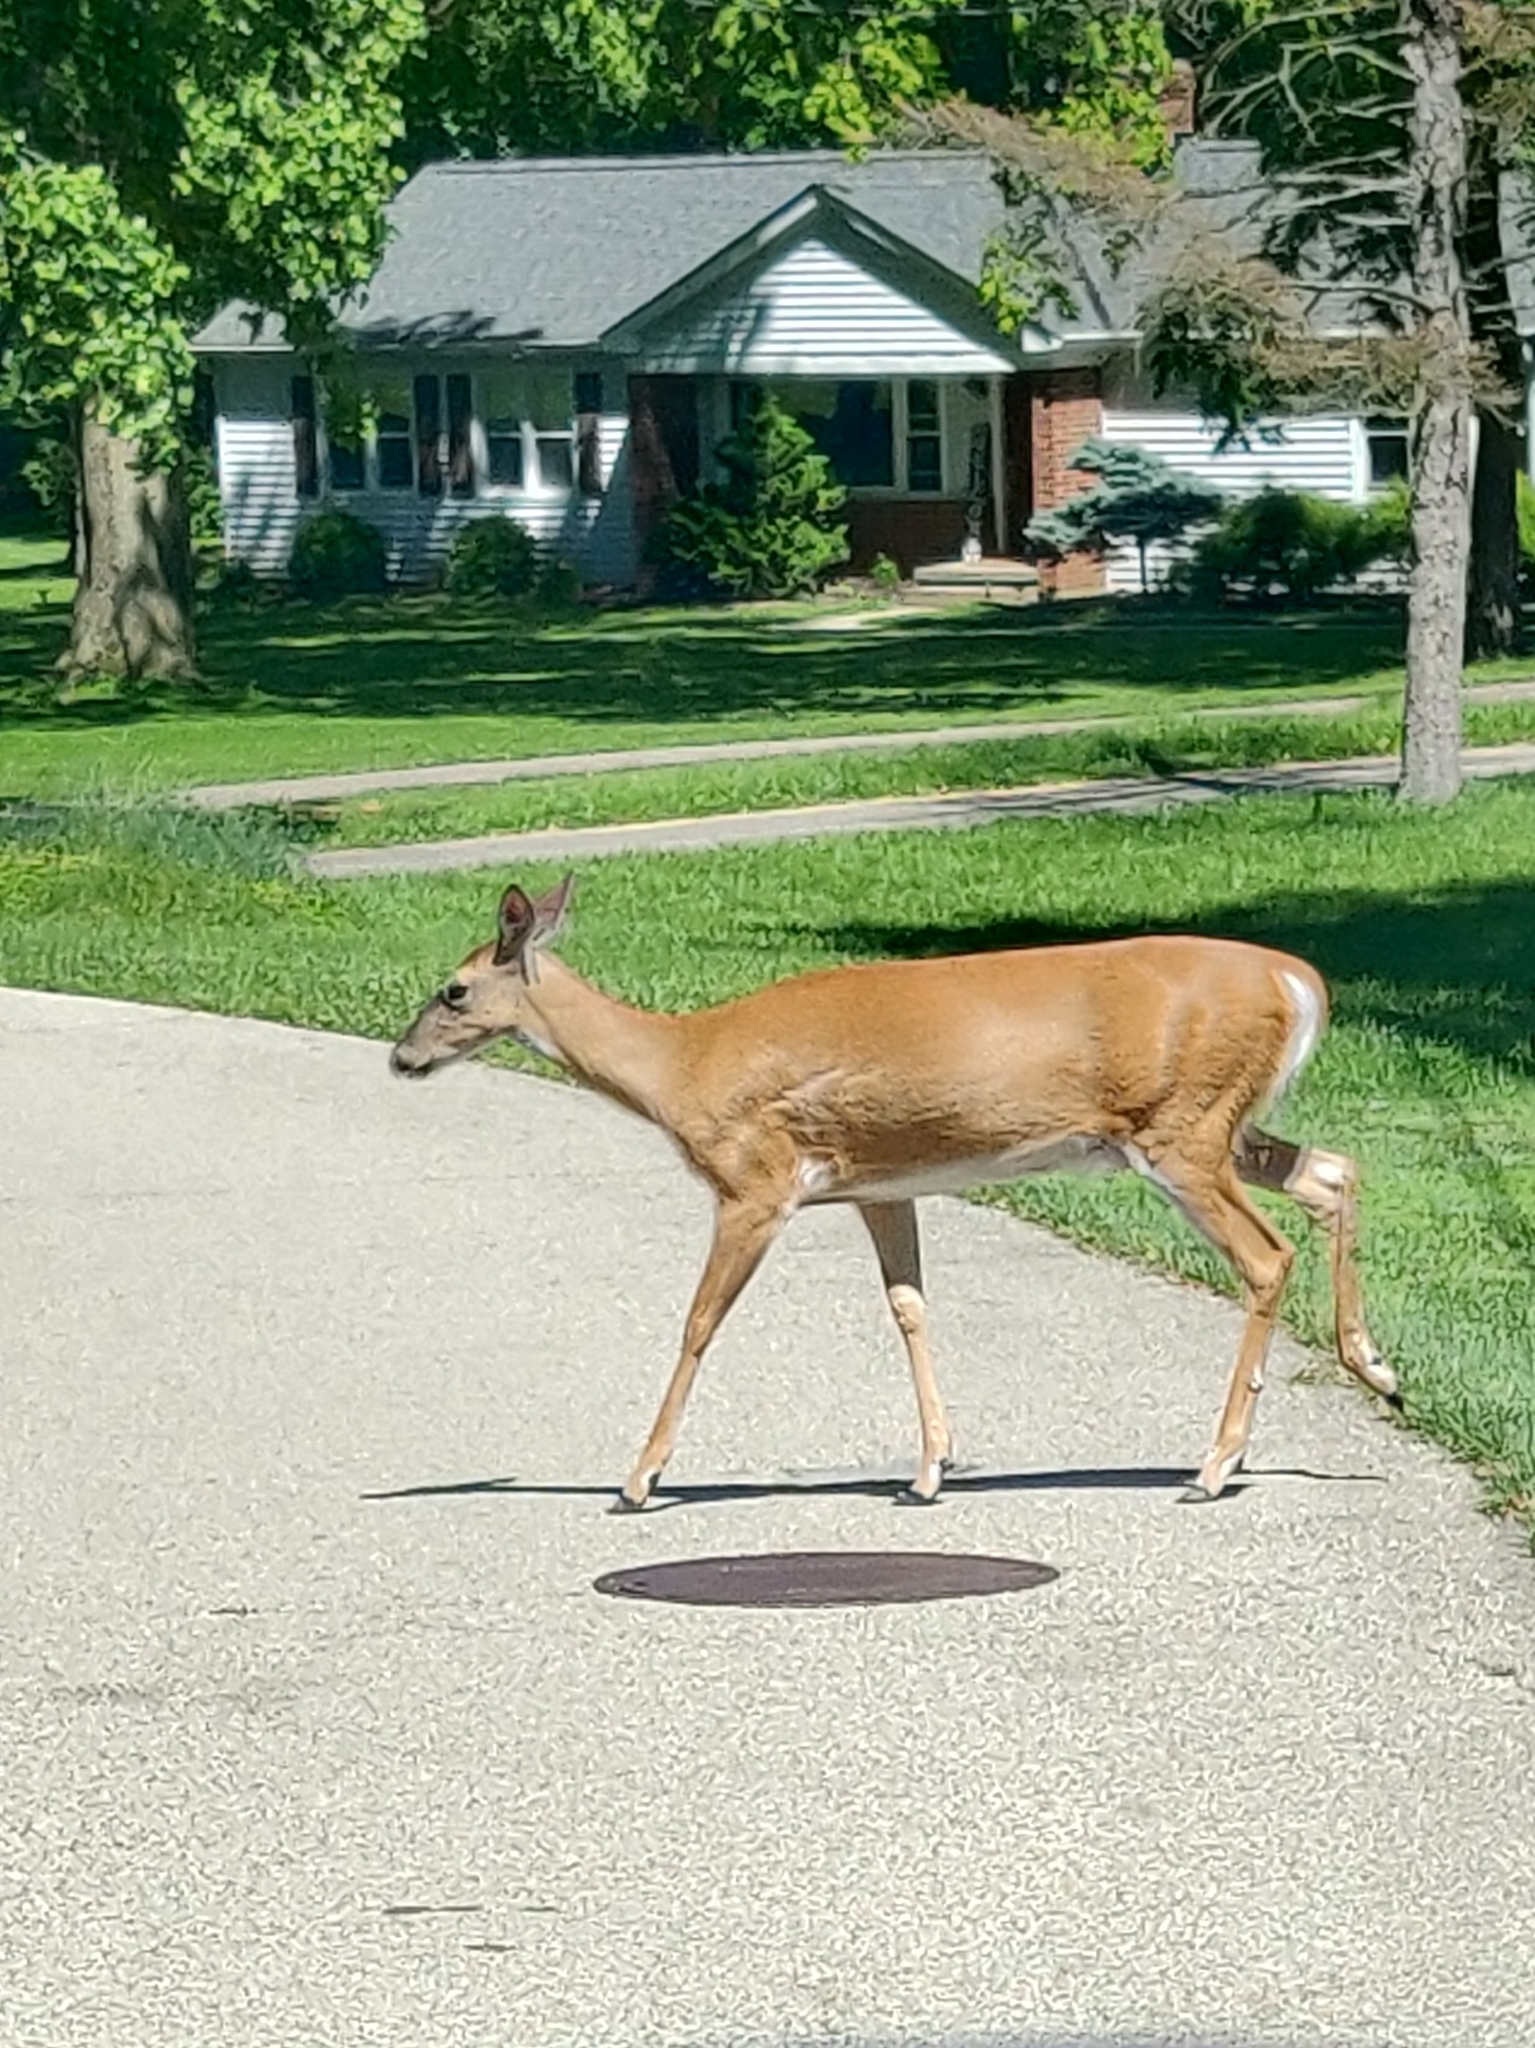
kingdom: Animalia
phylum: Chordata
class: Mammalia
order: Artiodactyla
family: Cervidae
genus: Odocoileus
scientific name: Odocoileus virginianus
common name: White-tailed deer
